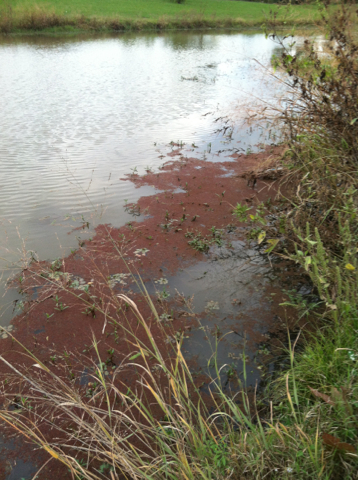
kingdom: Plantae
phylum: Tracheophyta
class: Polypodiopsida
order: Salviniales
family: Salviniaceae
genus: Azolla
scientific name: Azolla caroliniana
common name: Carolina mosquitofern
